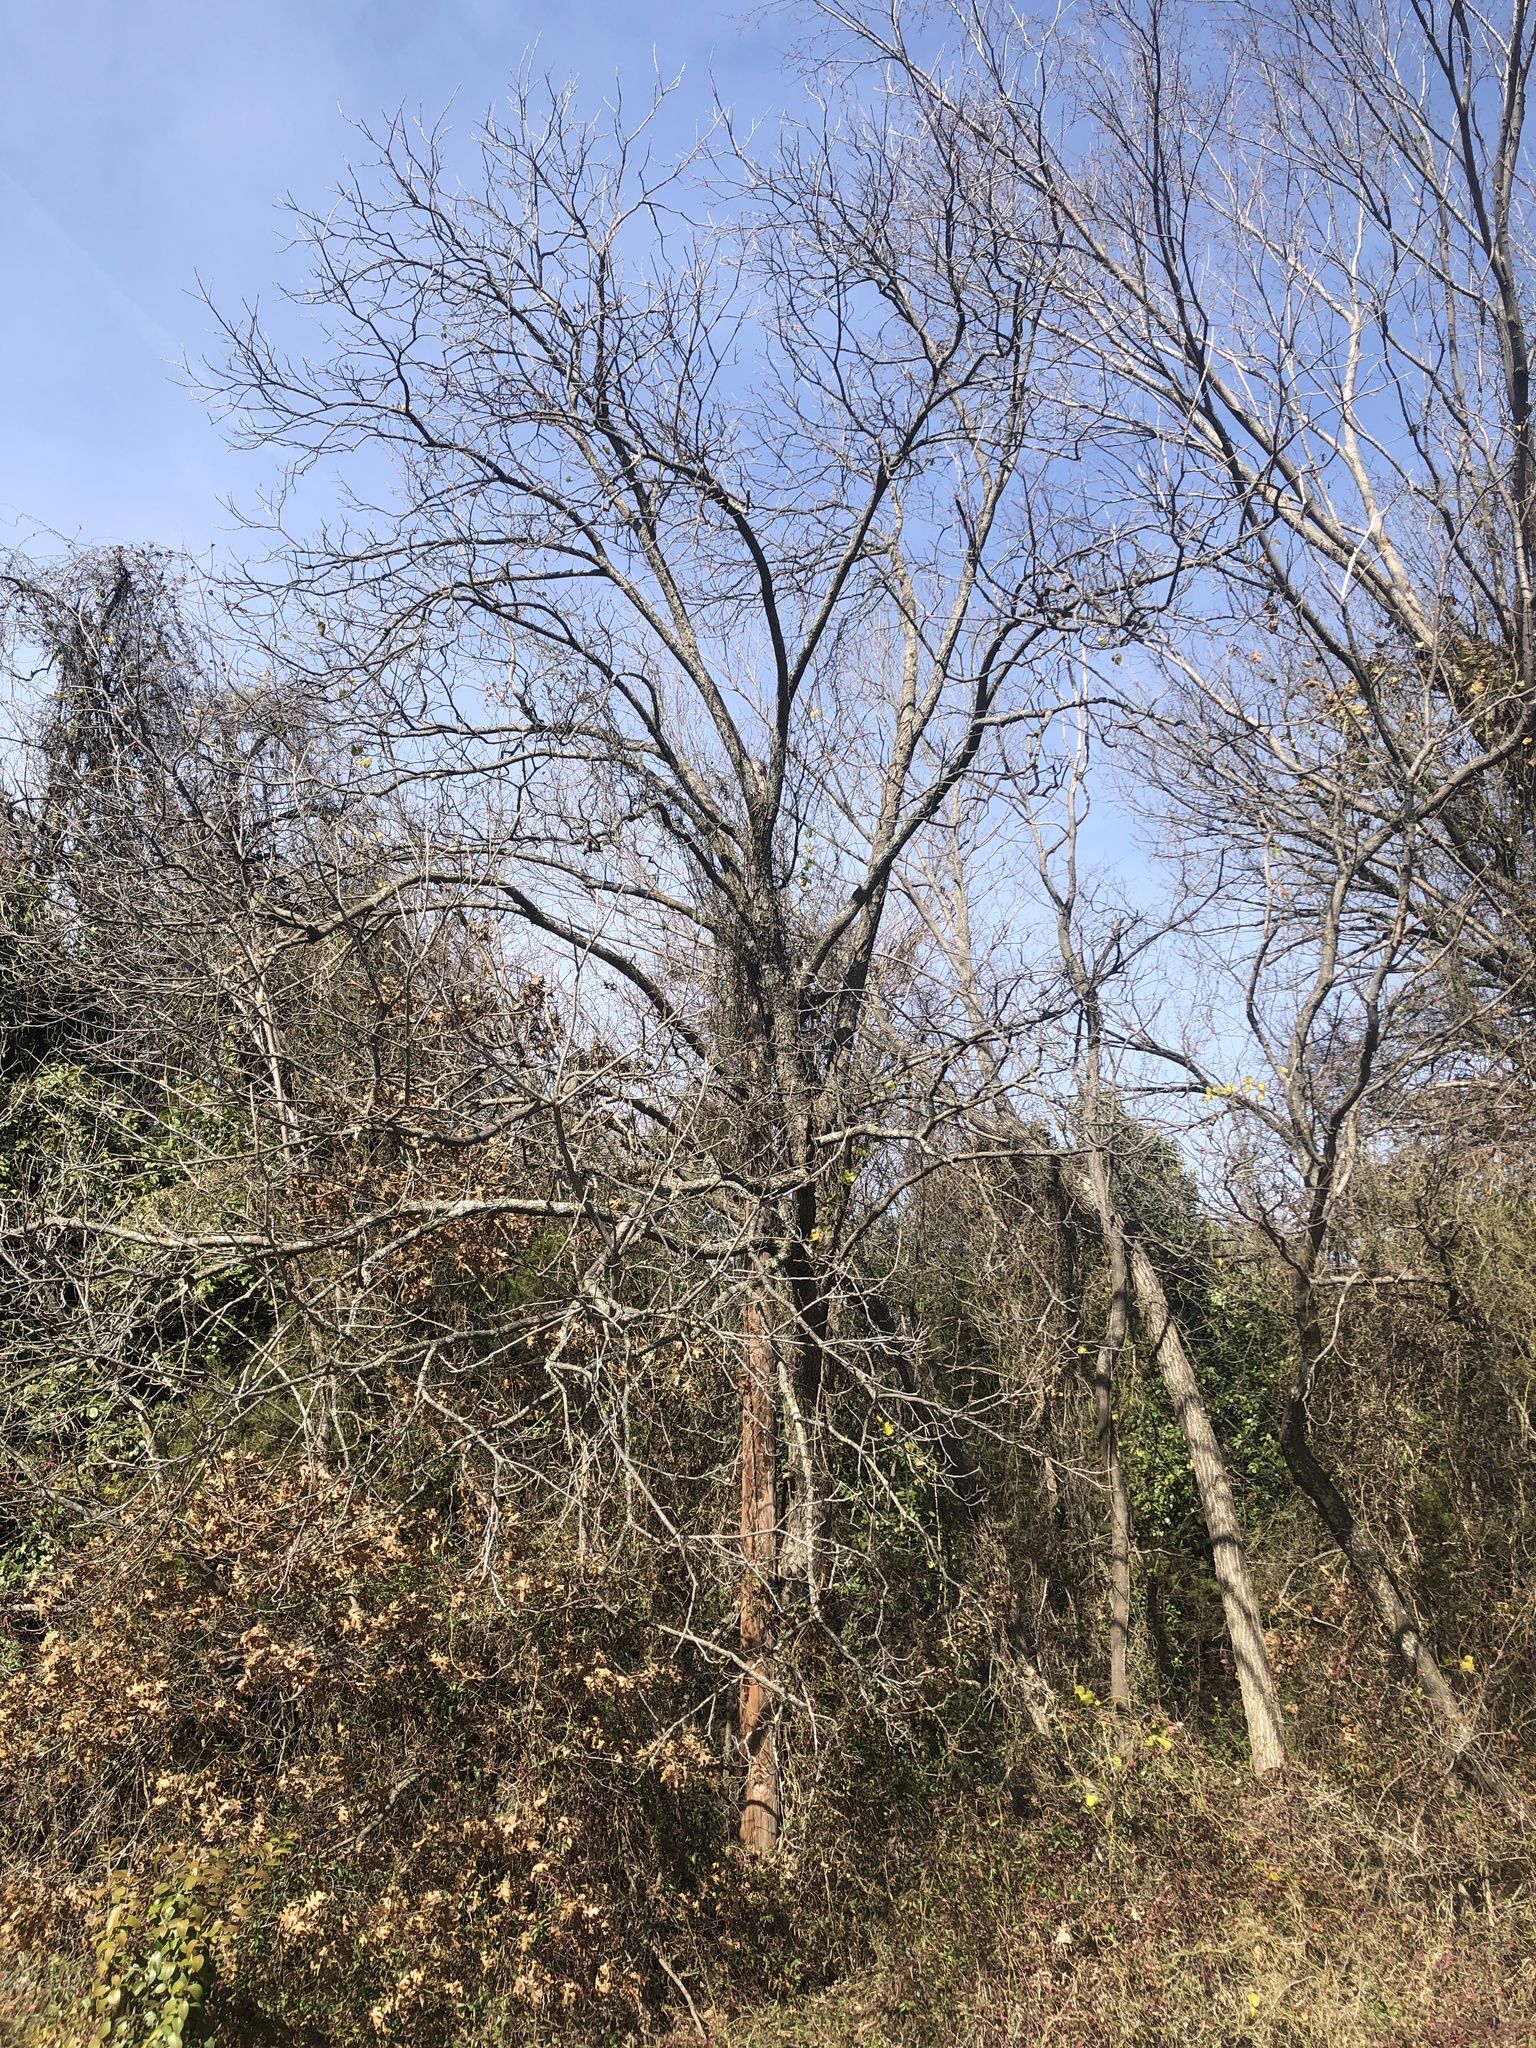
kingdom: Plantae
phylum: Tracheophyta
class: Magnoliopsida
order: Fagales
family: Juglandaceae
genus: Carya
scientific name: Carya illinoinensis
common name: Pecan
